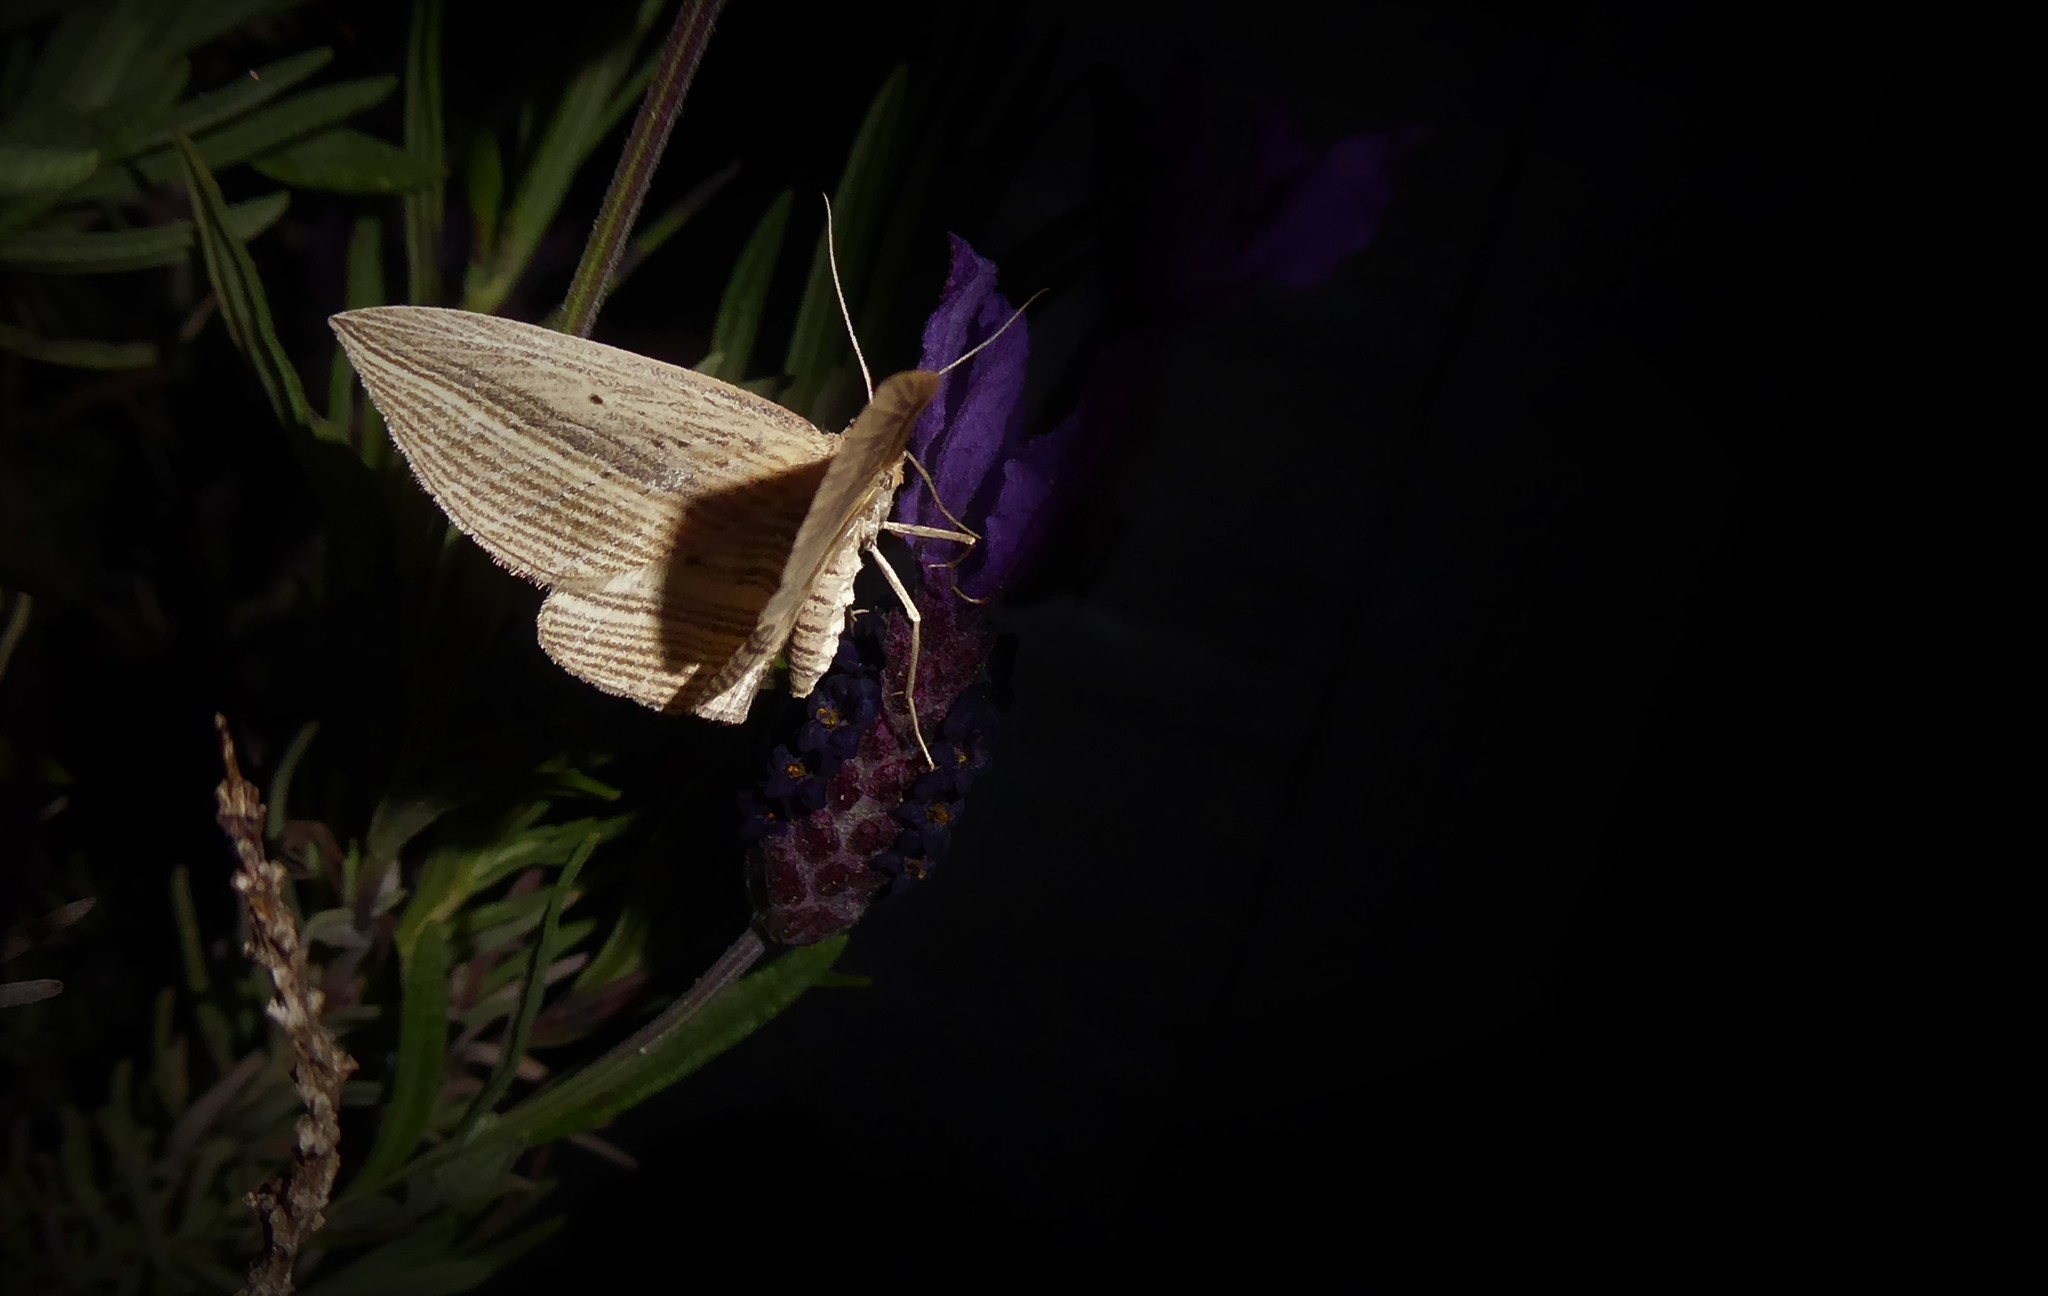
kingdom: Animalia
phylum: Arthropoda
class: Insecta
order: Lepidoptera
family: Geometridae
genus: Epiphryne
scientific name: Epiphryne verriculata
